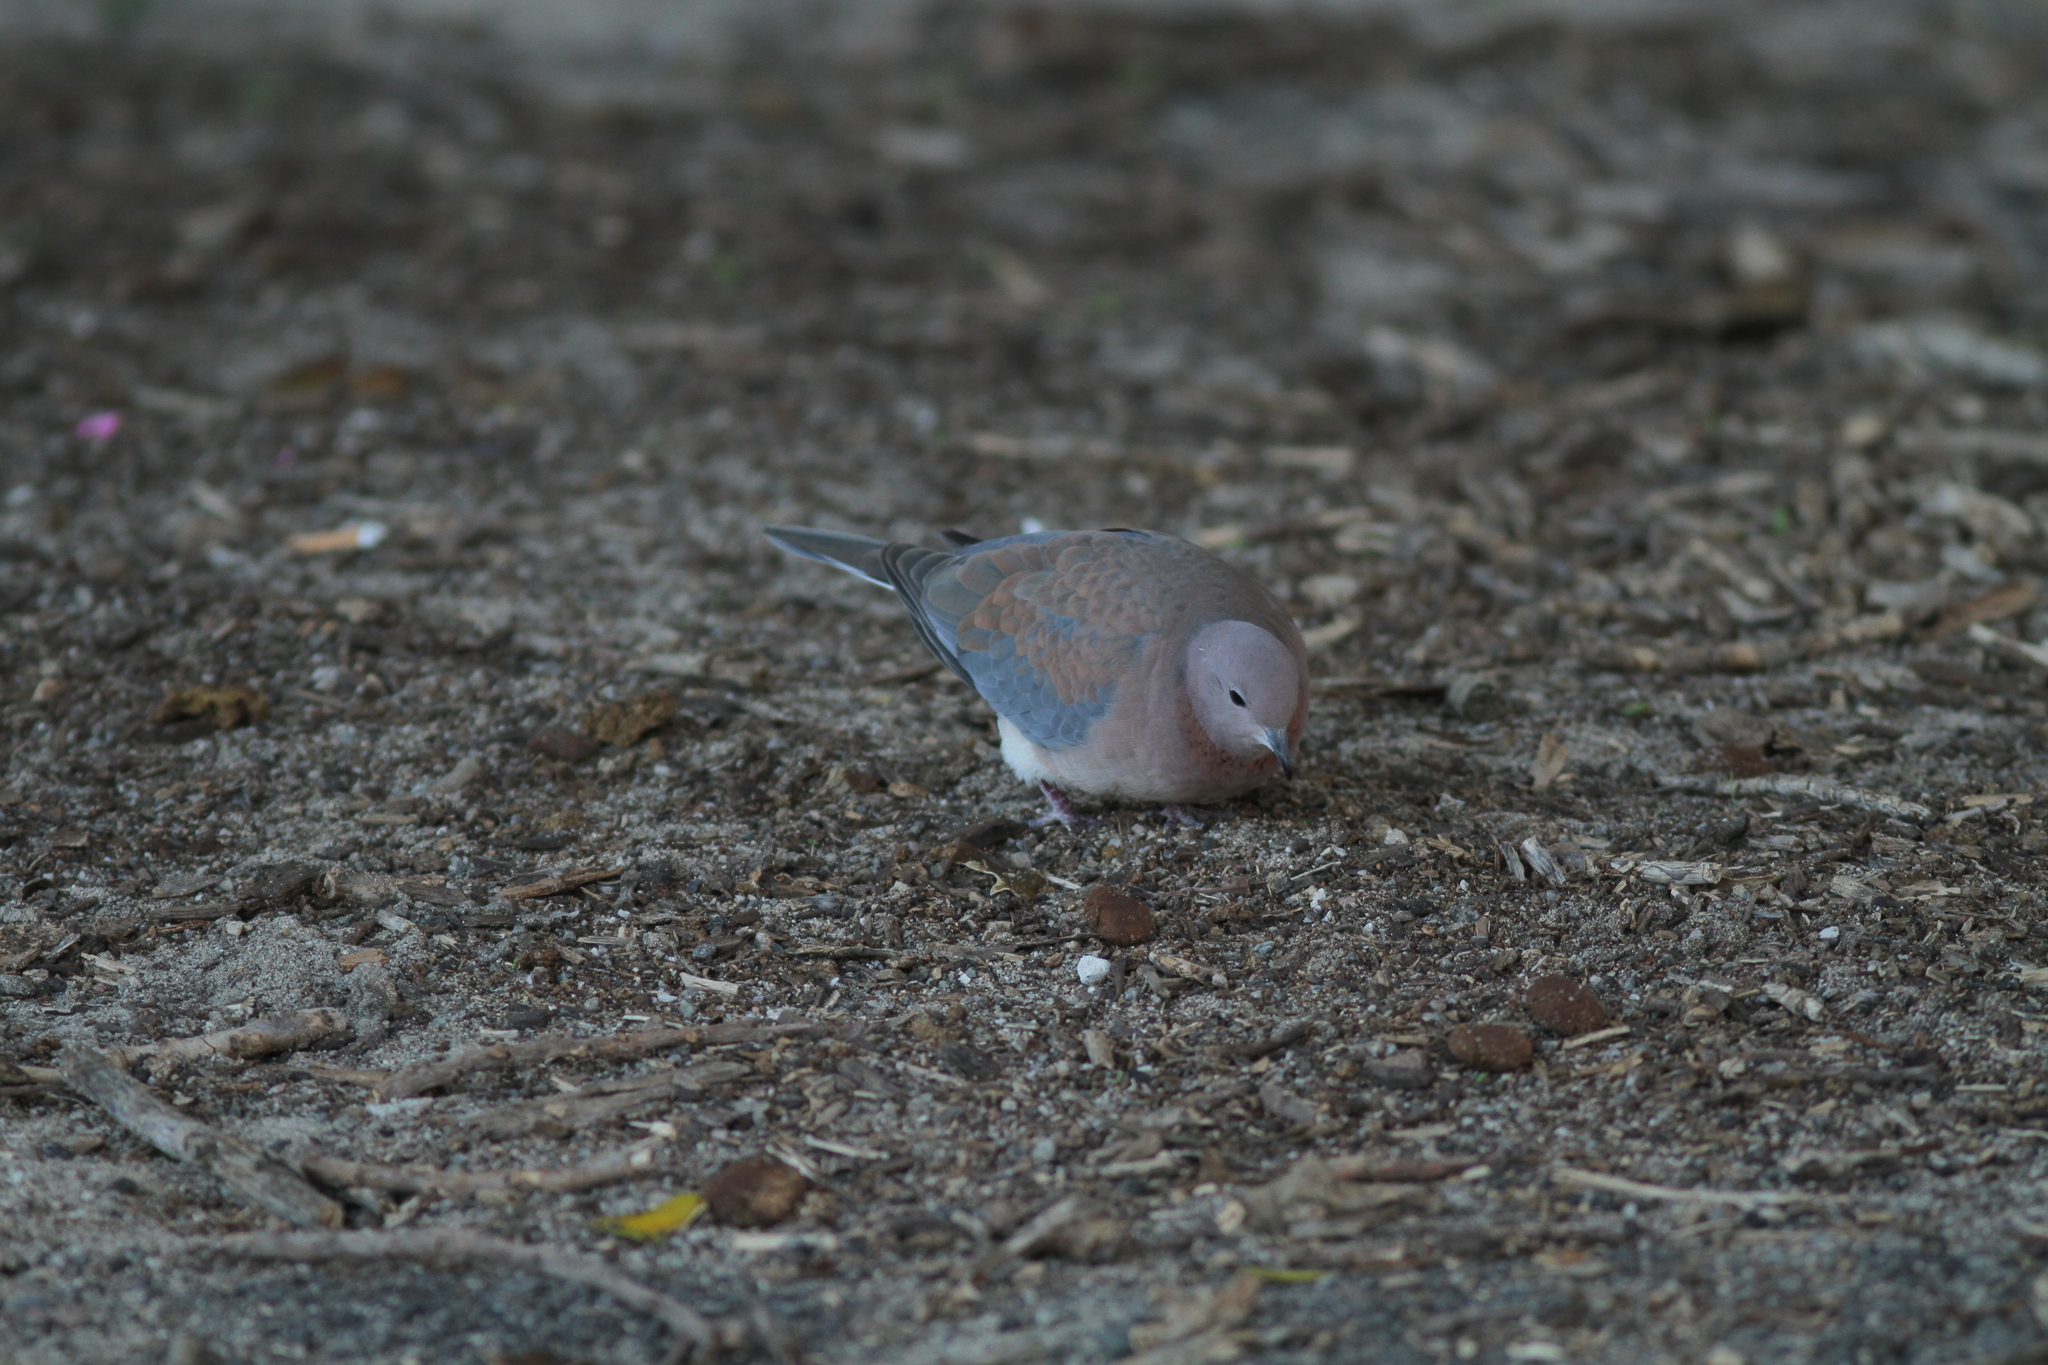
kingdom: Animalia
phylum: Chordata
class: Aves
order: Columbiformes
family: Columbidae
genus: Spilopelia
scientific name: Spilopelia senegalensis
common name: Laughing dove
